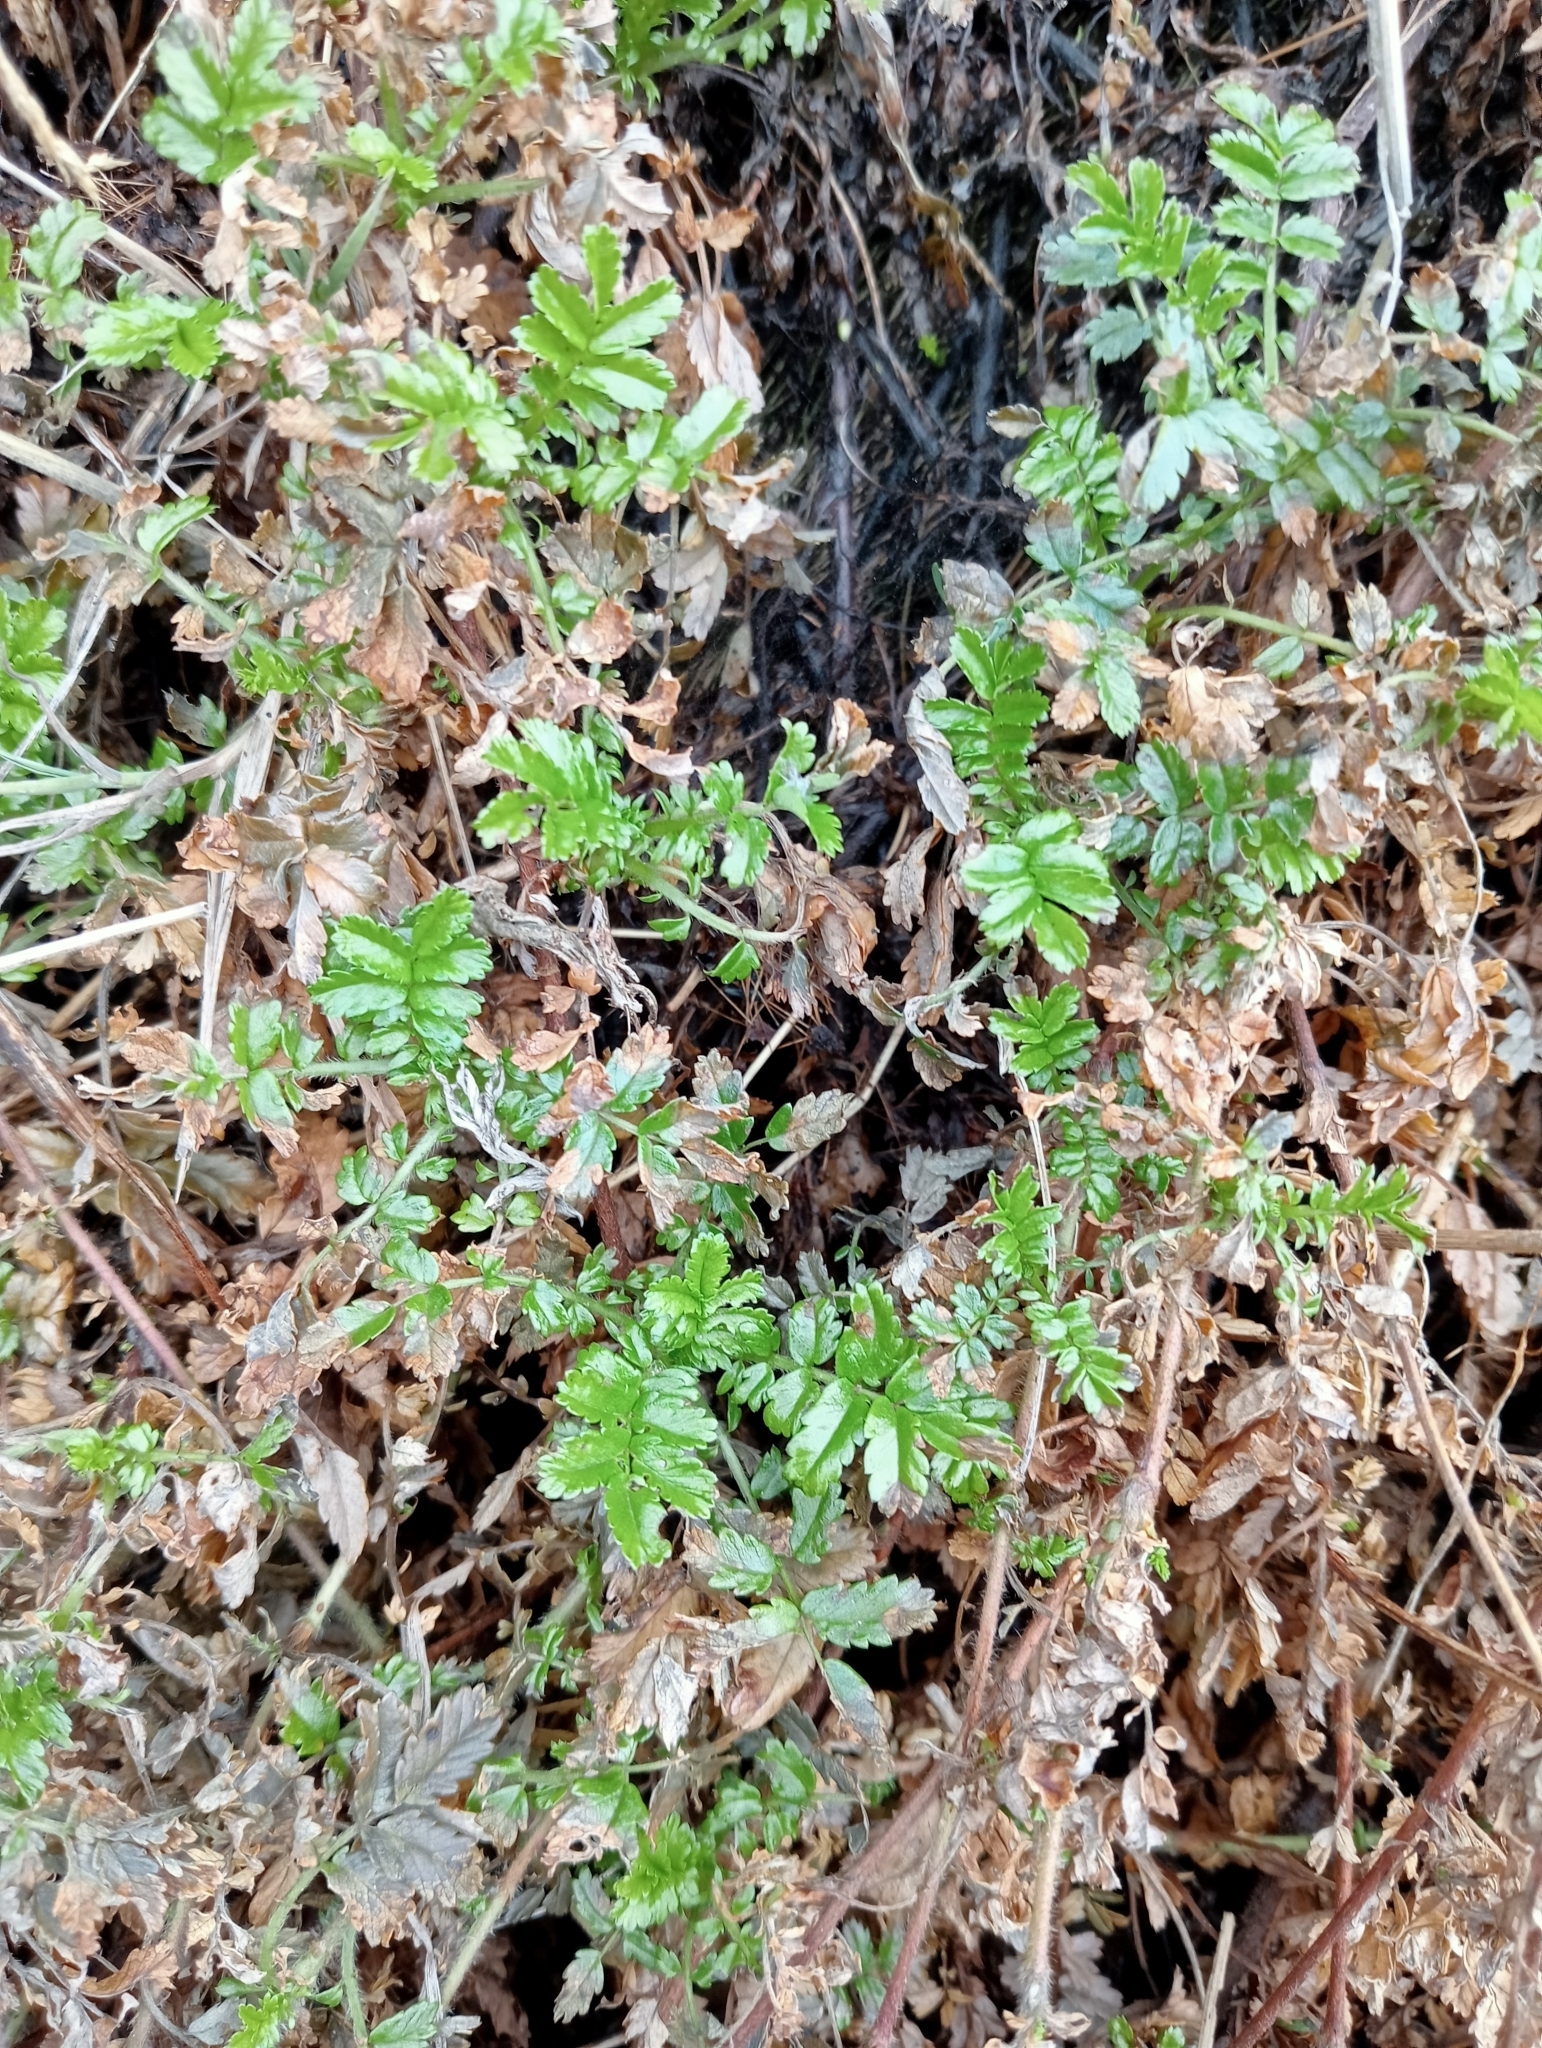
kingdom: Plantae
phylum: Tracheophyta
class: Magnoliopsida
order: Rosales
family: Rosaceae
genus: Acaena
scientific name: Acaena novae-zelandiae
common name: Pirri-pirri-bur
